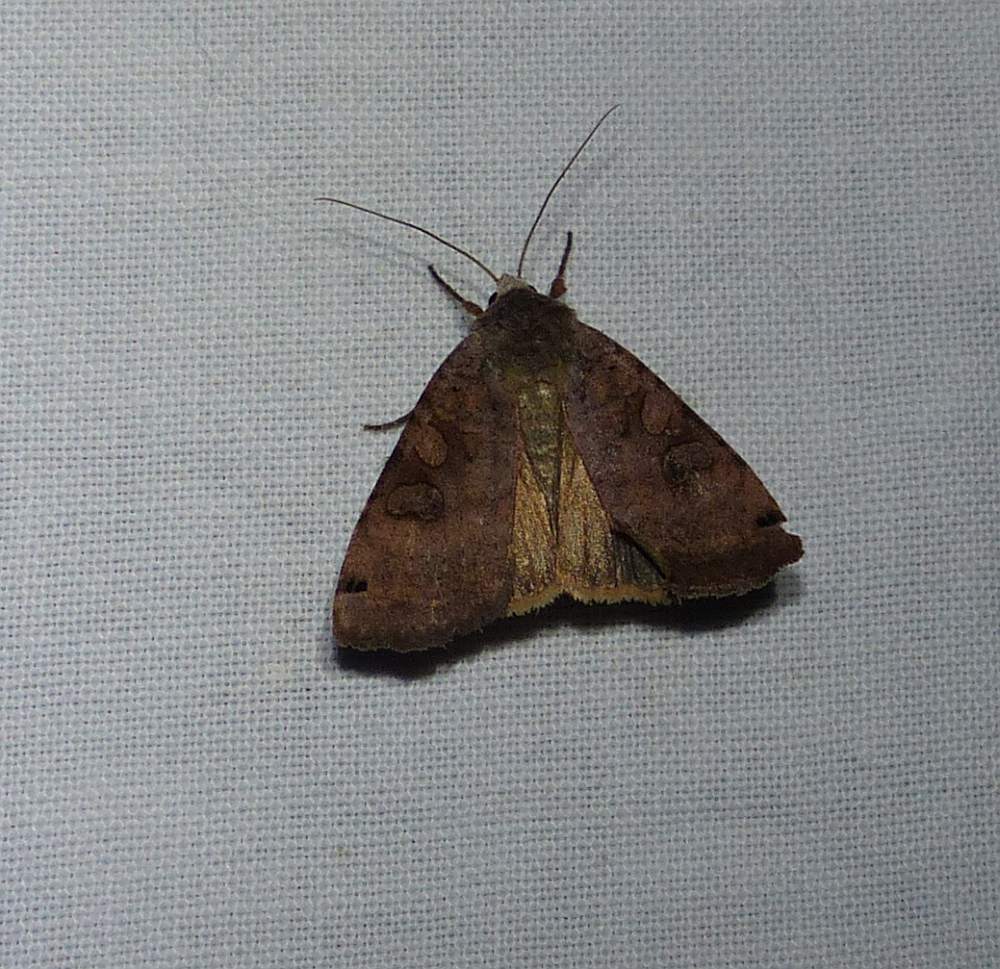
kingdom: Animalia
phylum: Arthropoda
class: Insecta
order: Lepidoptera
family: Noctuidae
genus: Xestia
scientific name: Xestia smithii
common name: Smith's dart
